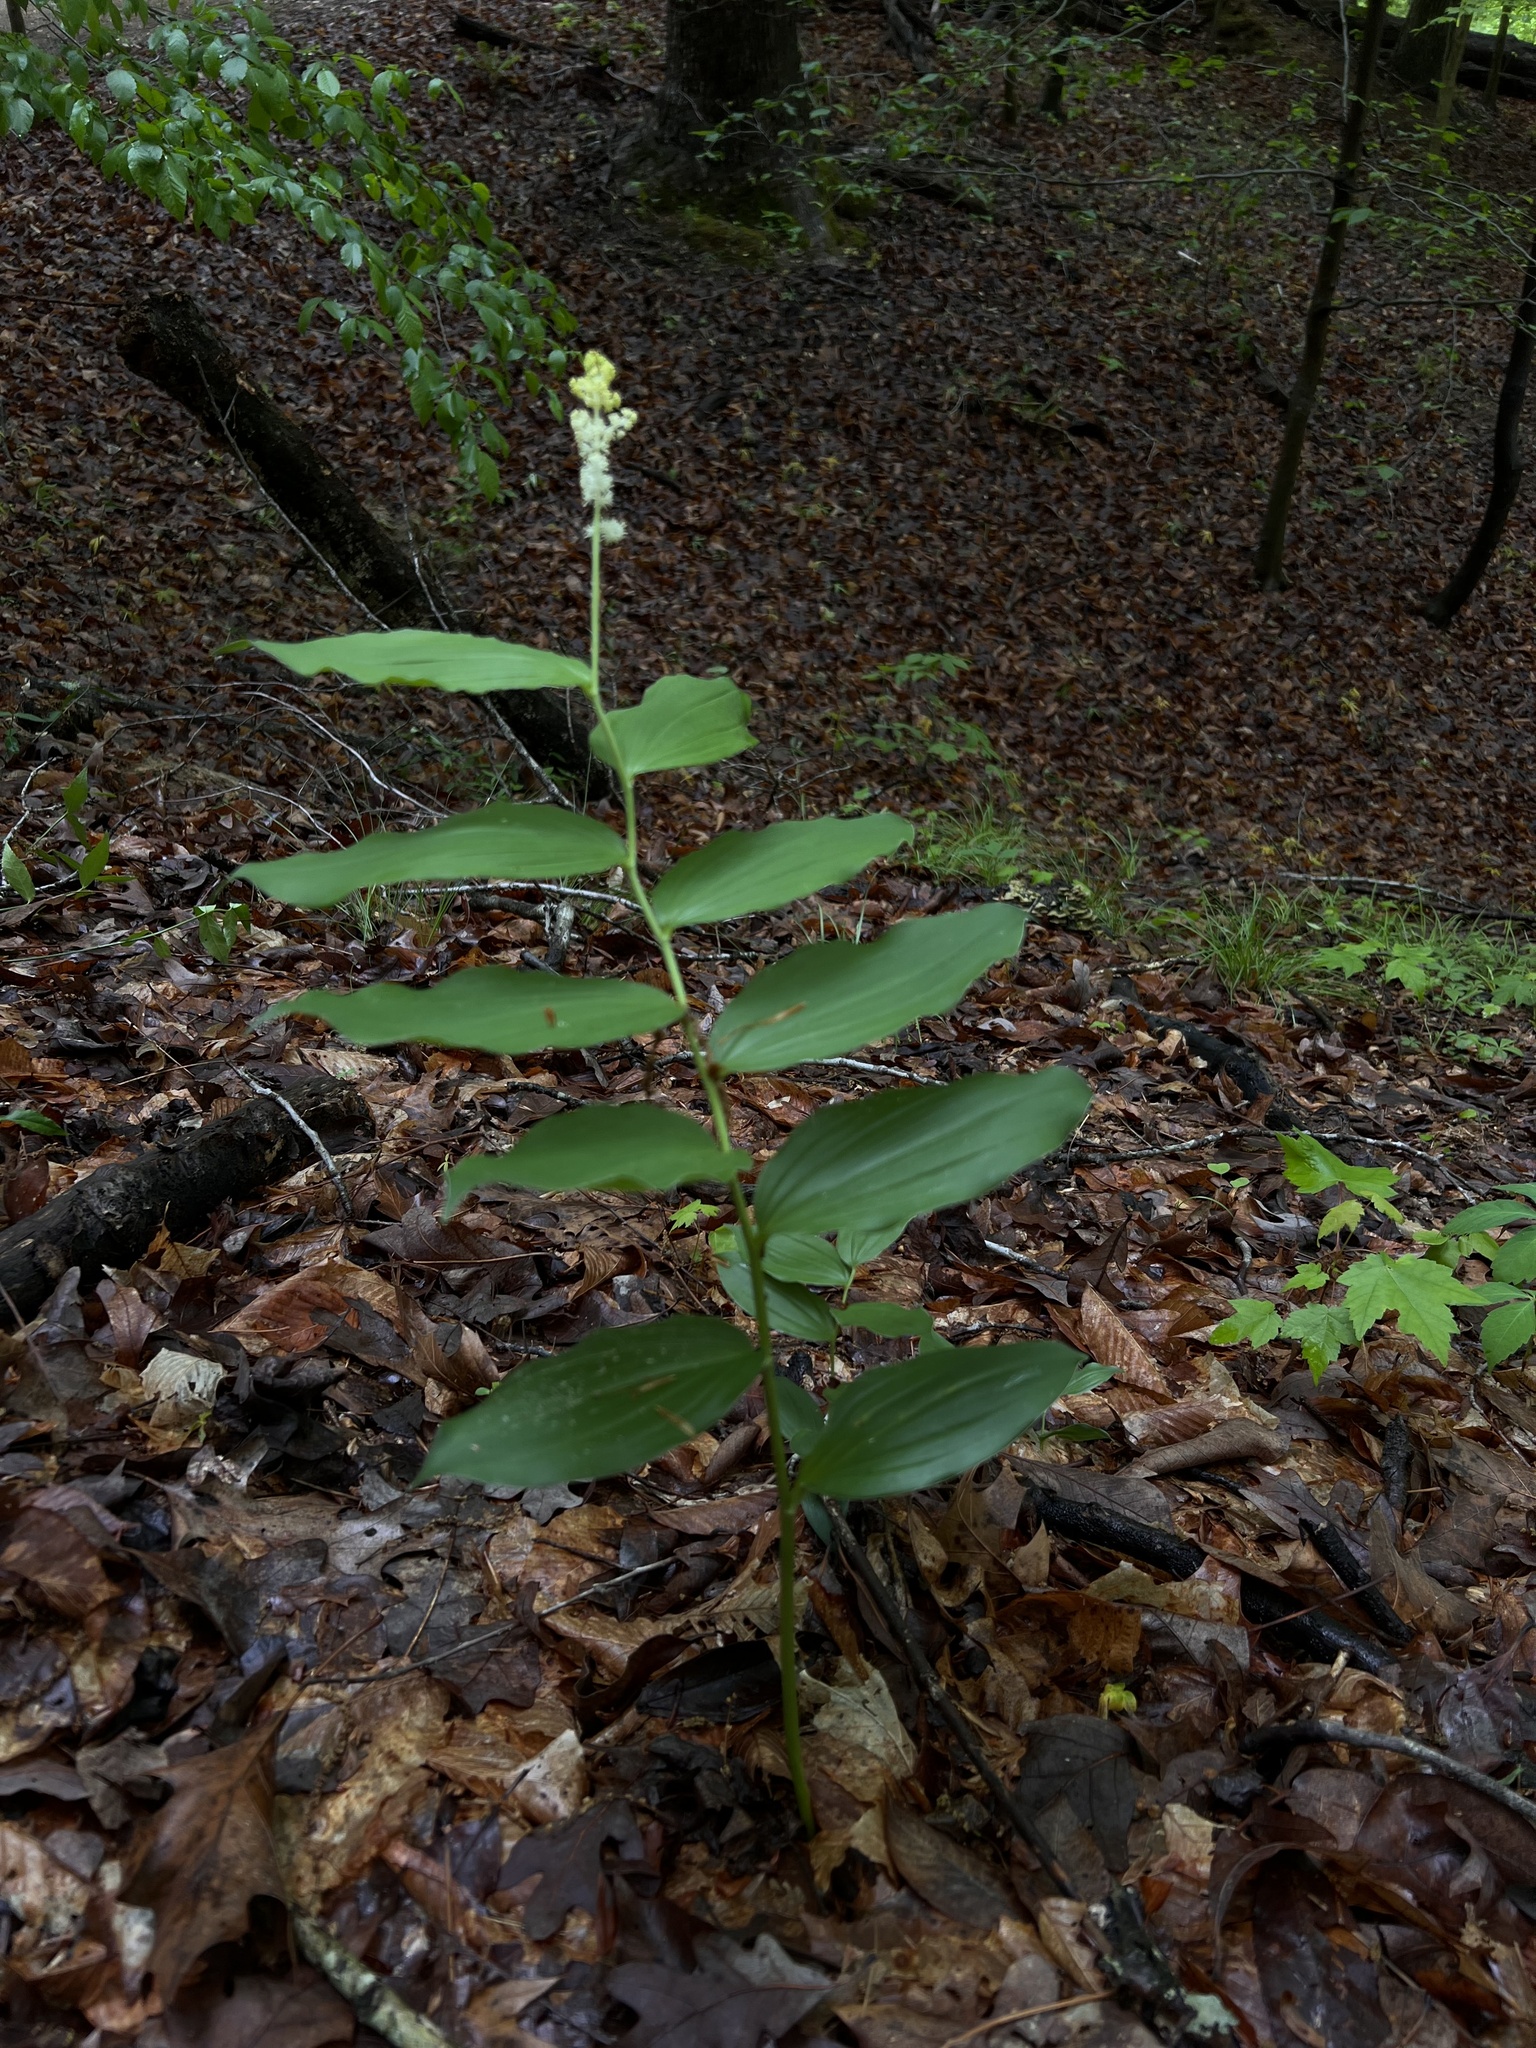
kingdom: Plantae
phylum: Tracheophyta
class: Liliopsida
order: Asparagales
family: Asparagaceae
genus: Maianthemum
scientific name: Maianthemum racemosum
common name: False spikenard
